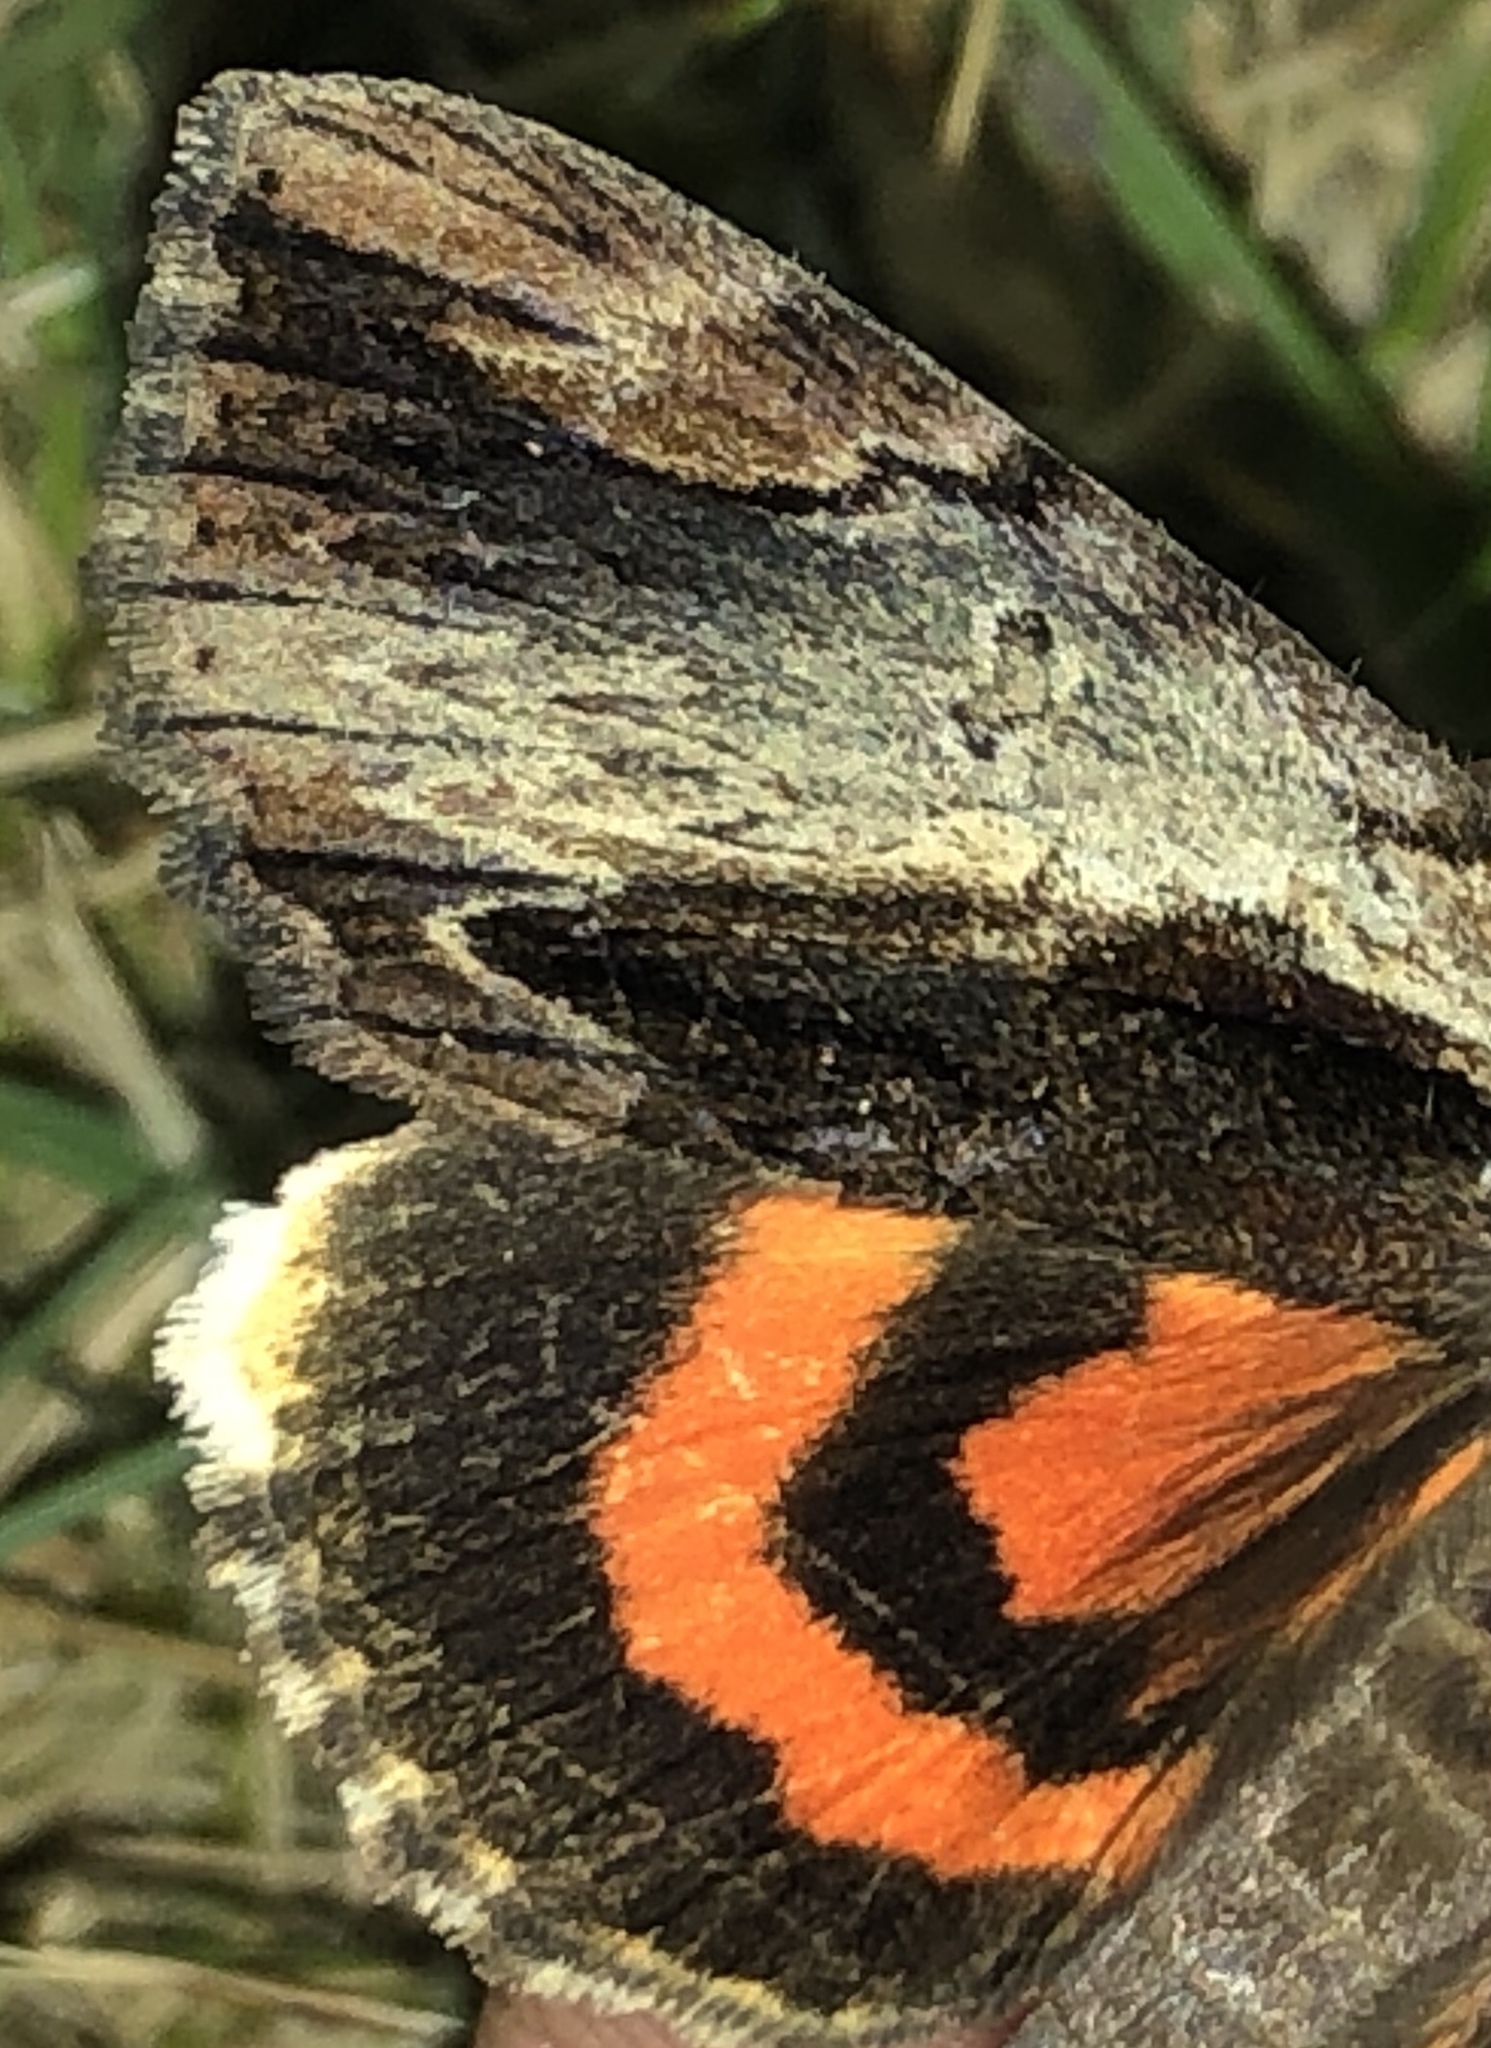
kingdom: Animalia
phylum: Arthropoda
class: Insecta
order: Lepidoptera
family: Erebidae
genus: Catocala
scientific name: Catocala ultronia
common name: Ultronia underwing
